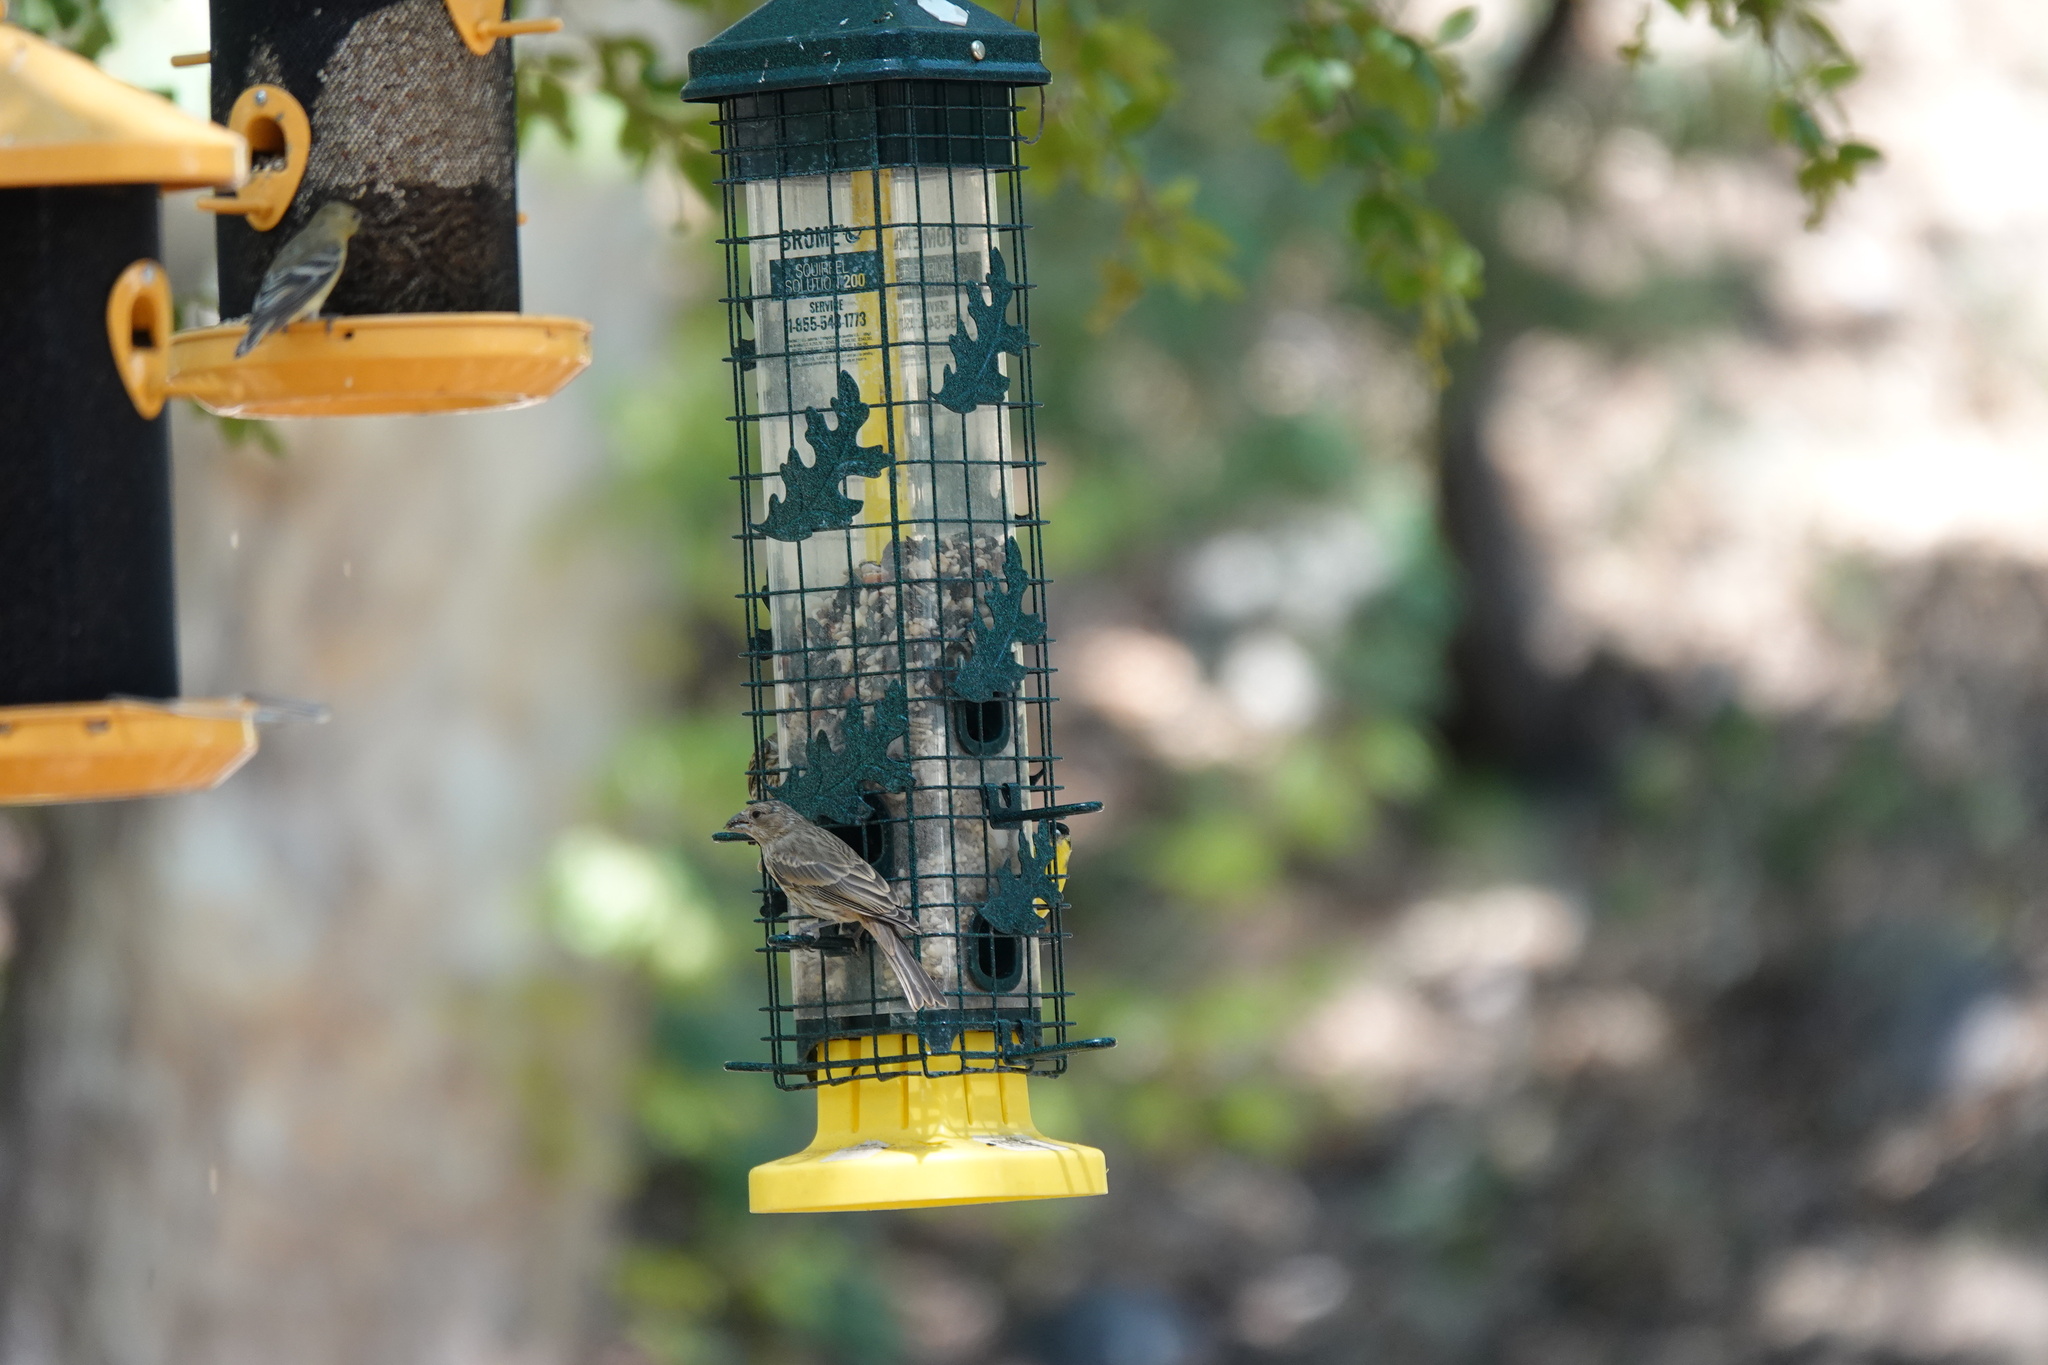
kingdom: Animalia
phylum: Chordata
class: Aves
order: Passeriformes
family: Fringillidae
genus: Haemorhous
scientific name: Haemorhous mexicanus
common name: House finch
